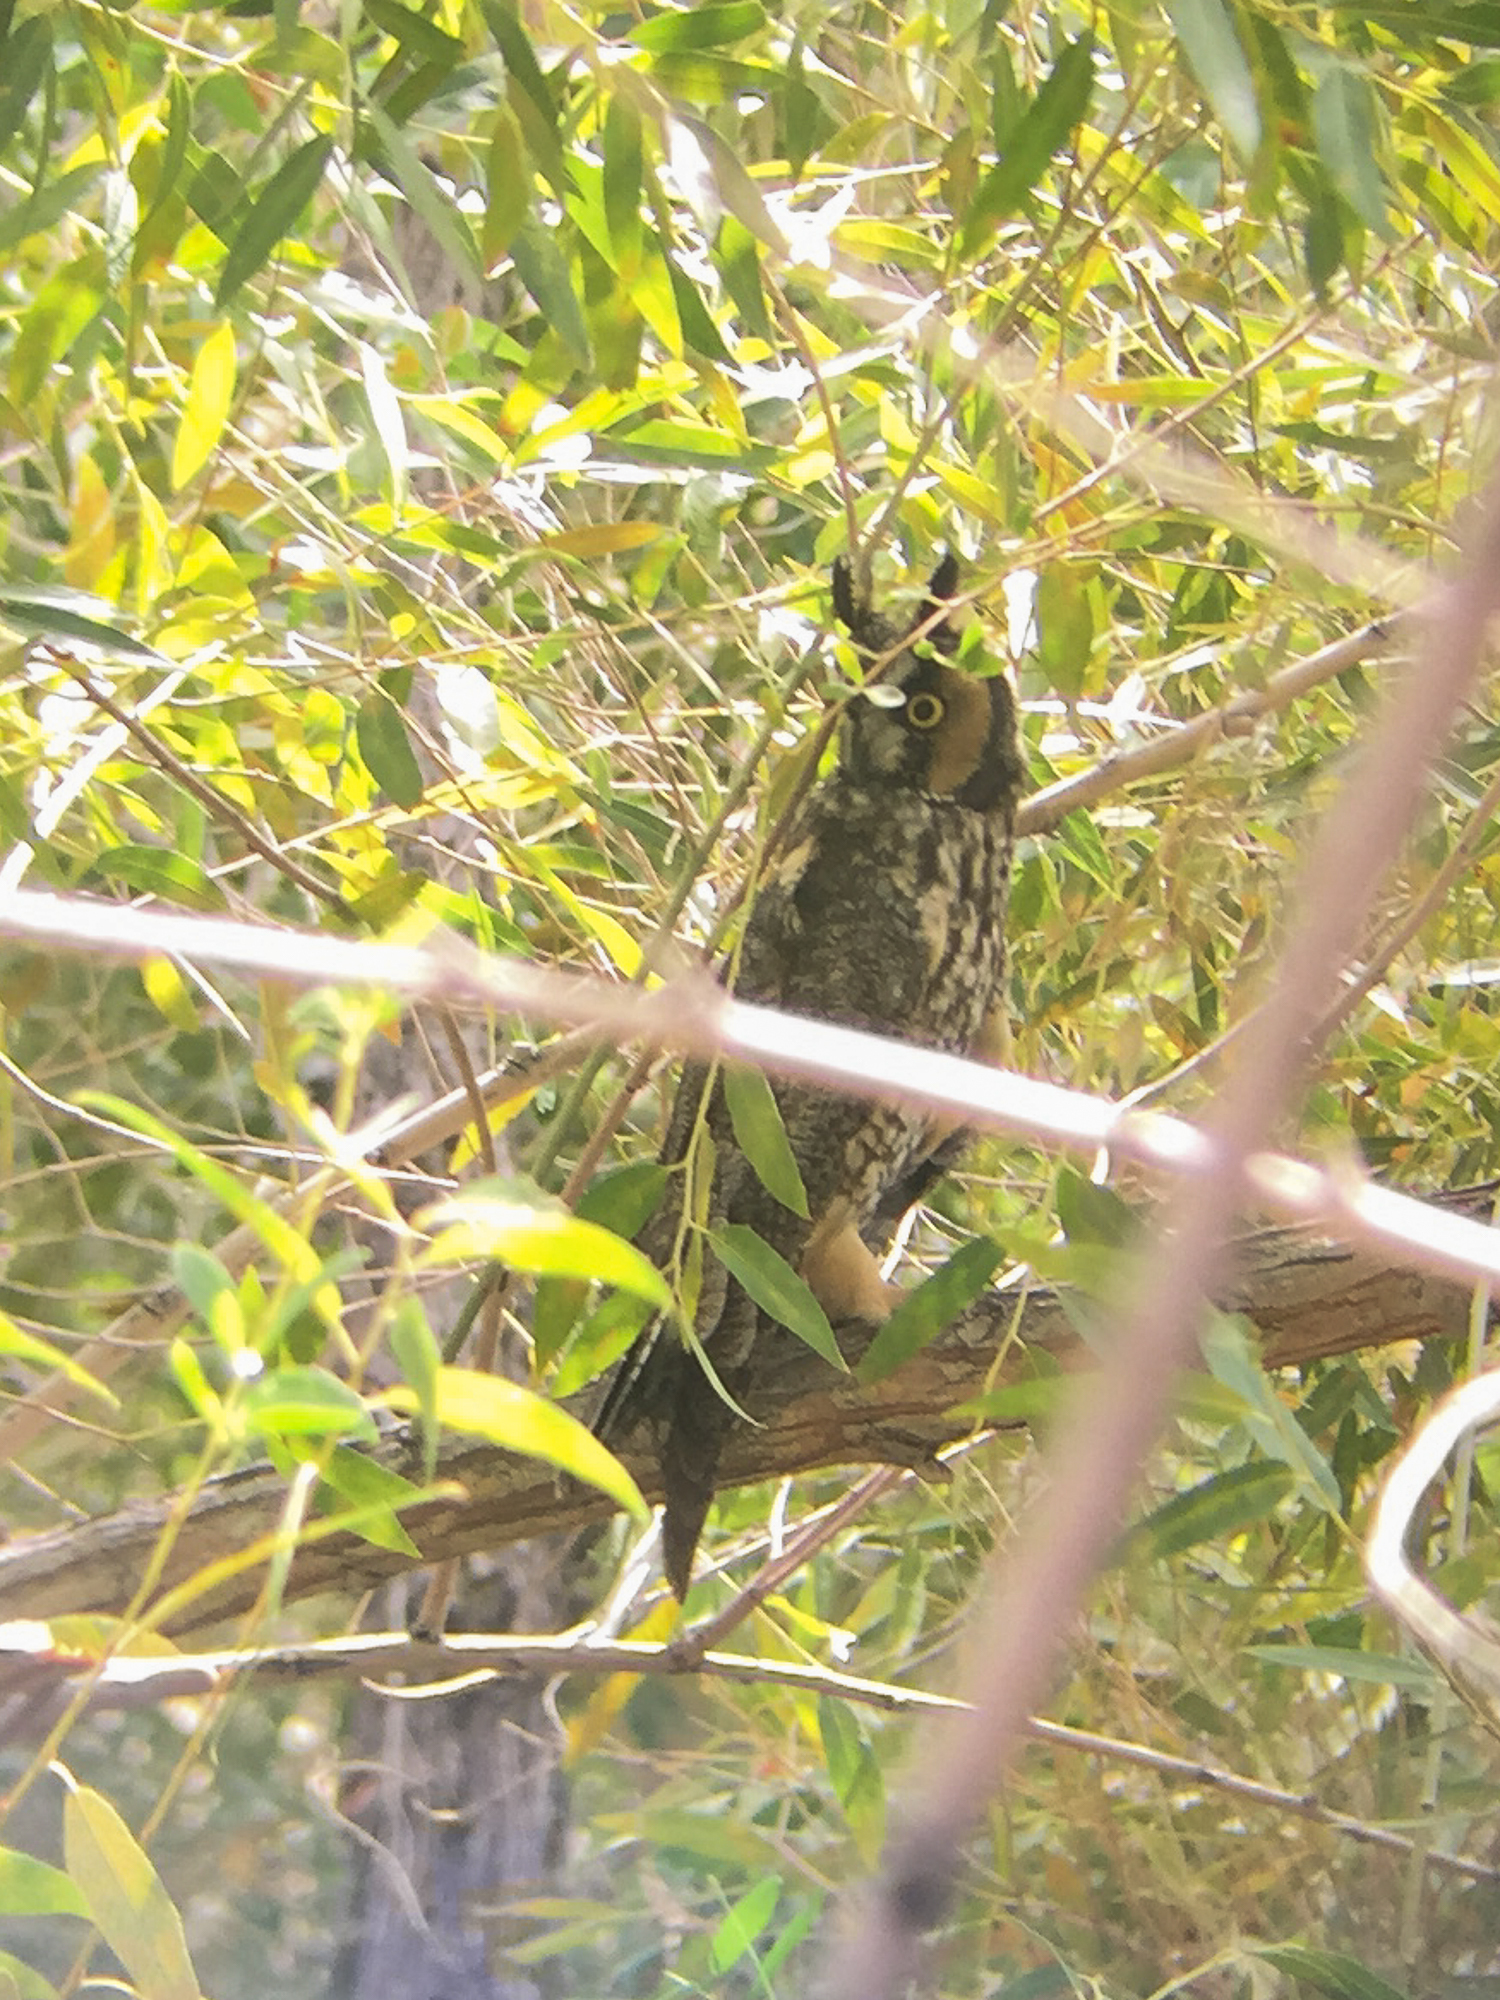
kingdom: Animalia
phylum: Chordata
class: Aves
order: Strigiformes
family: Strigidae
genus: Asio
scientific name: Asio otus
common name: Long-eared owl
